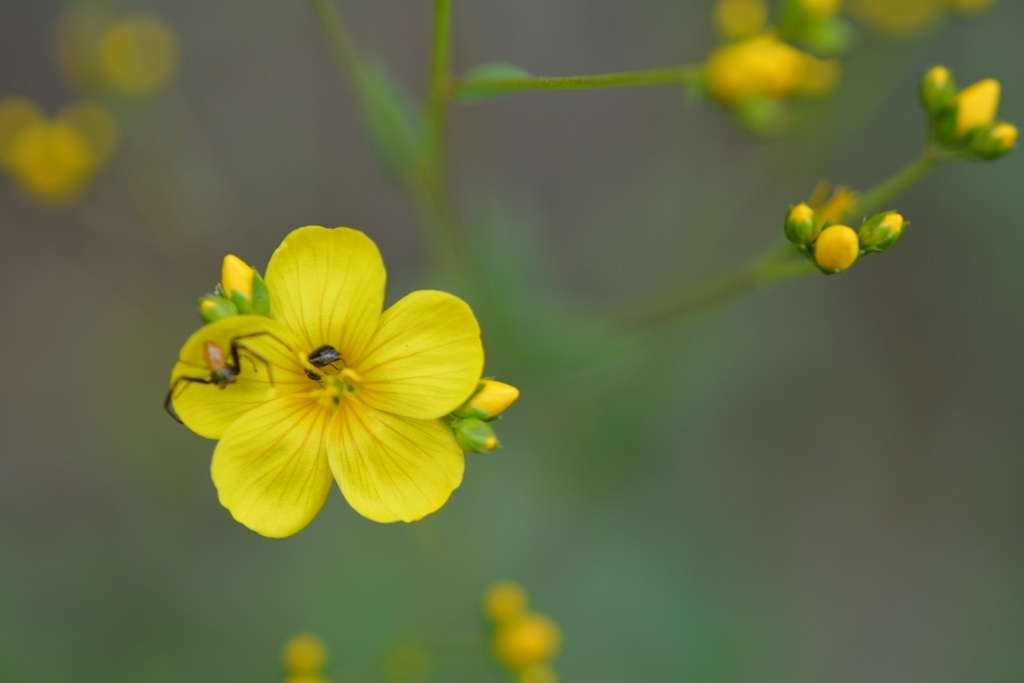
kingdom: Plantae
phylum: Tracheophyta
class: Magnoliopsida
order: Malpighiales
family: Linaceae
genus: Linum
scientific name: Linum mexicanum
